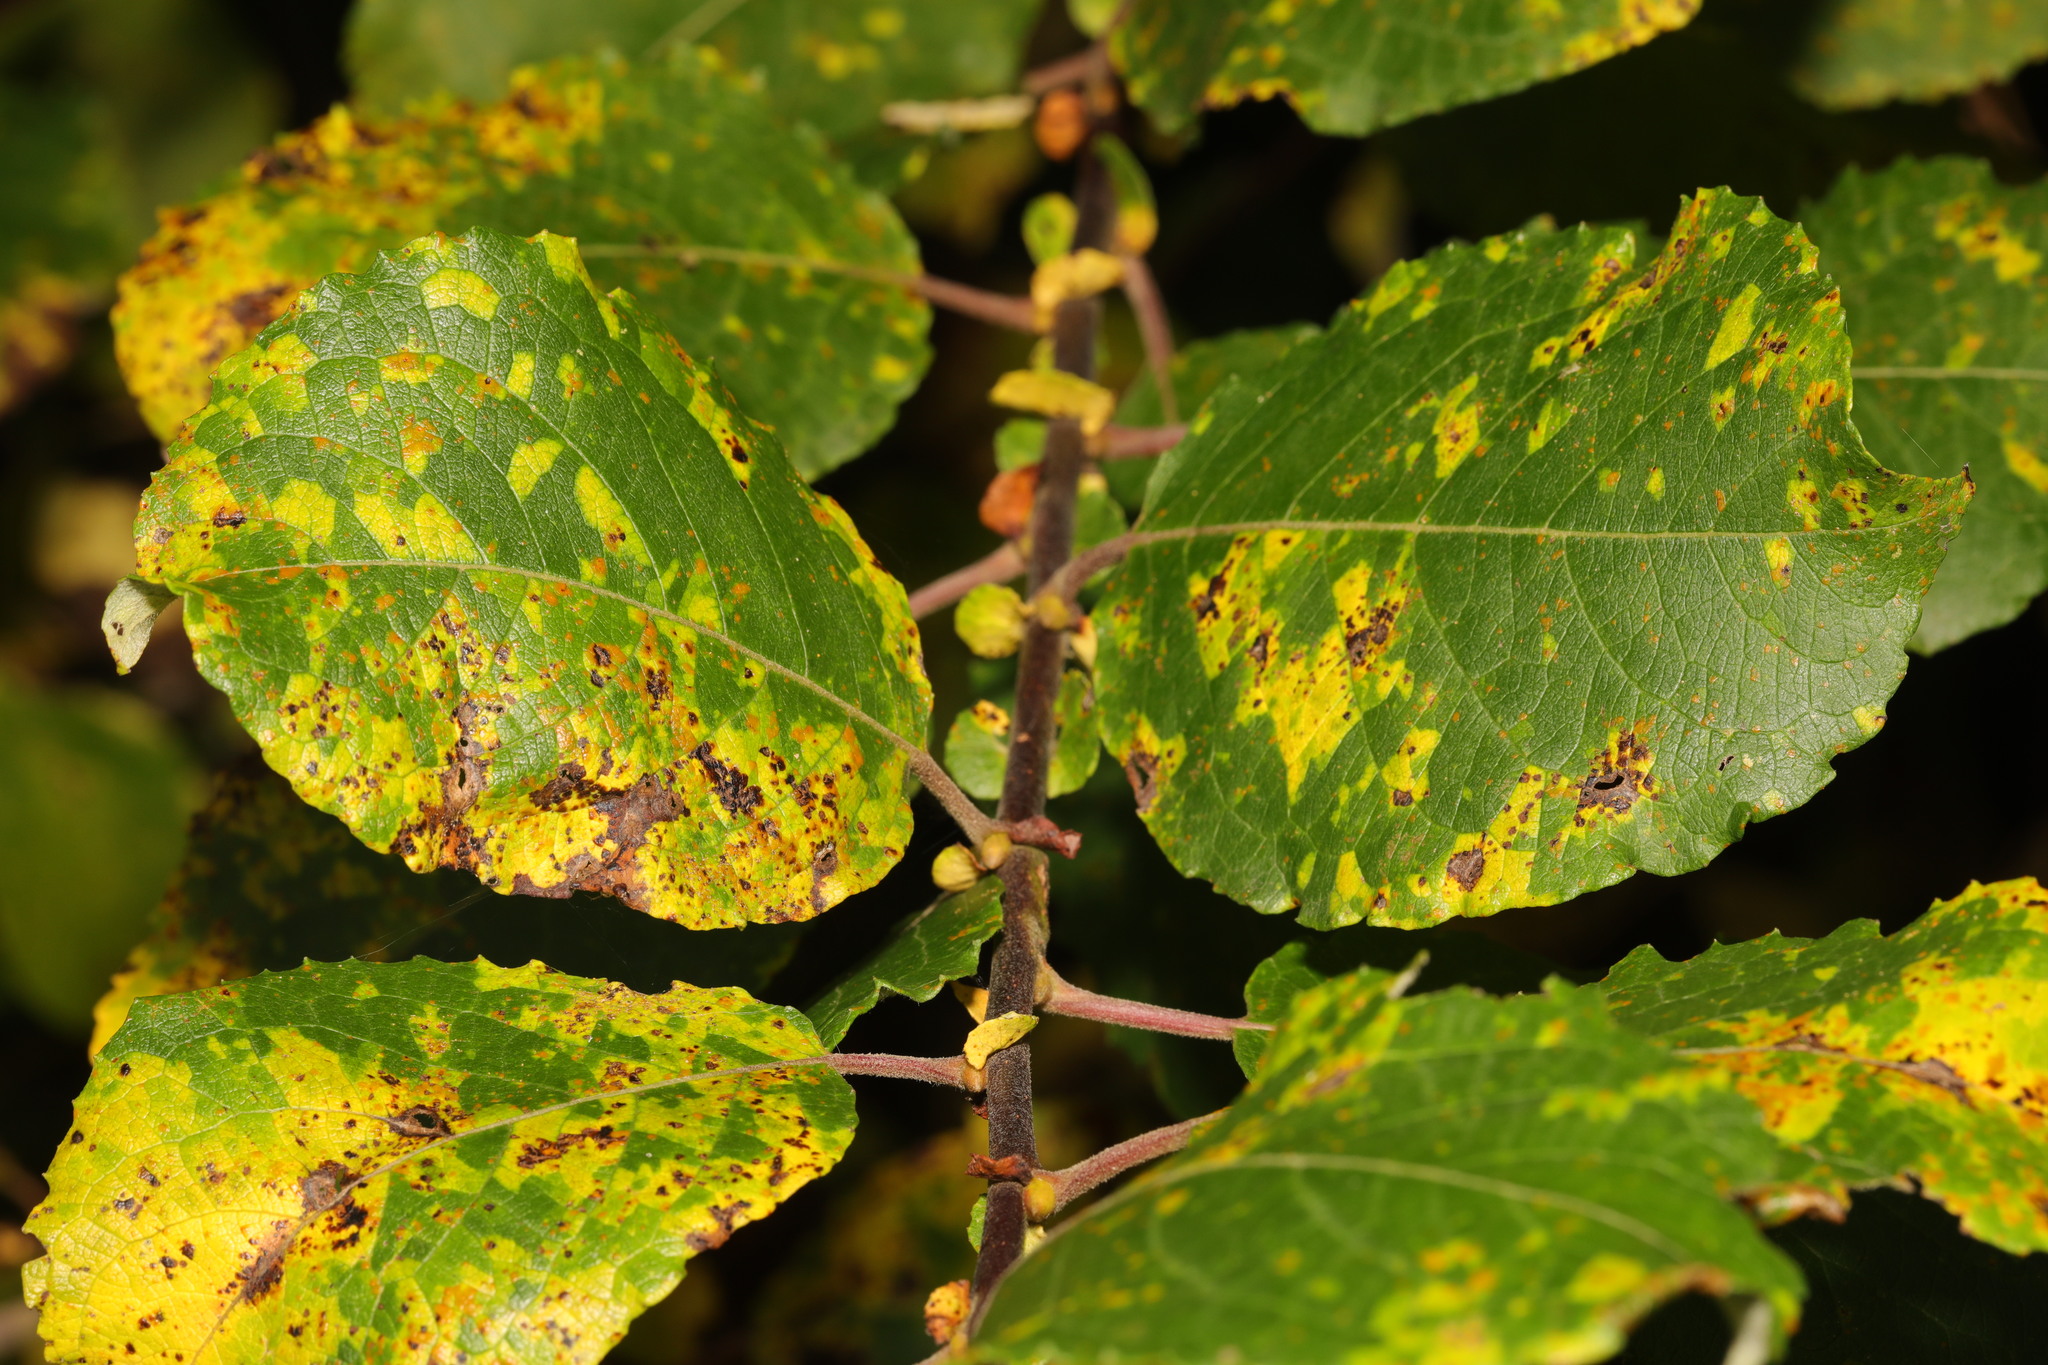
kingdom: Plantae
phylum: Tracheophyta
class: Magnoliopsida
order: Malpighiales
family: Salicaceae
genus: Salix
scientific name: Salix caprea
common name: Goat willow
